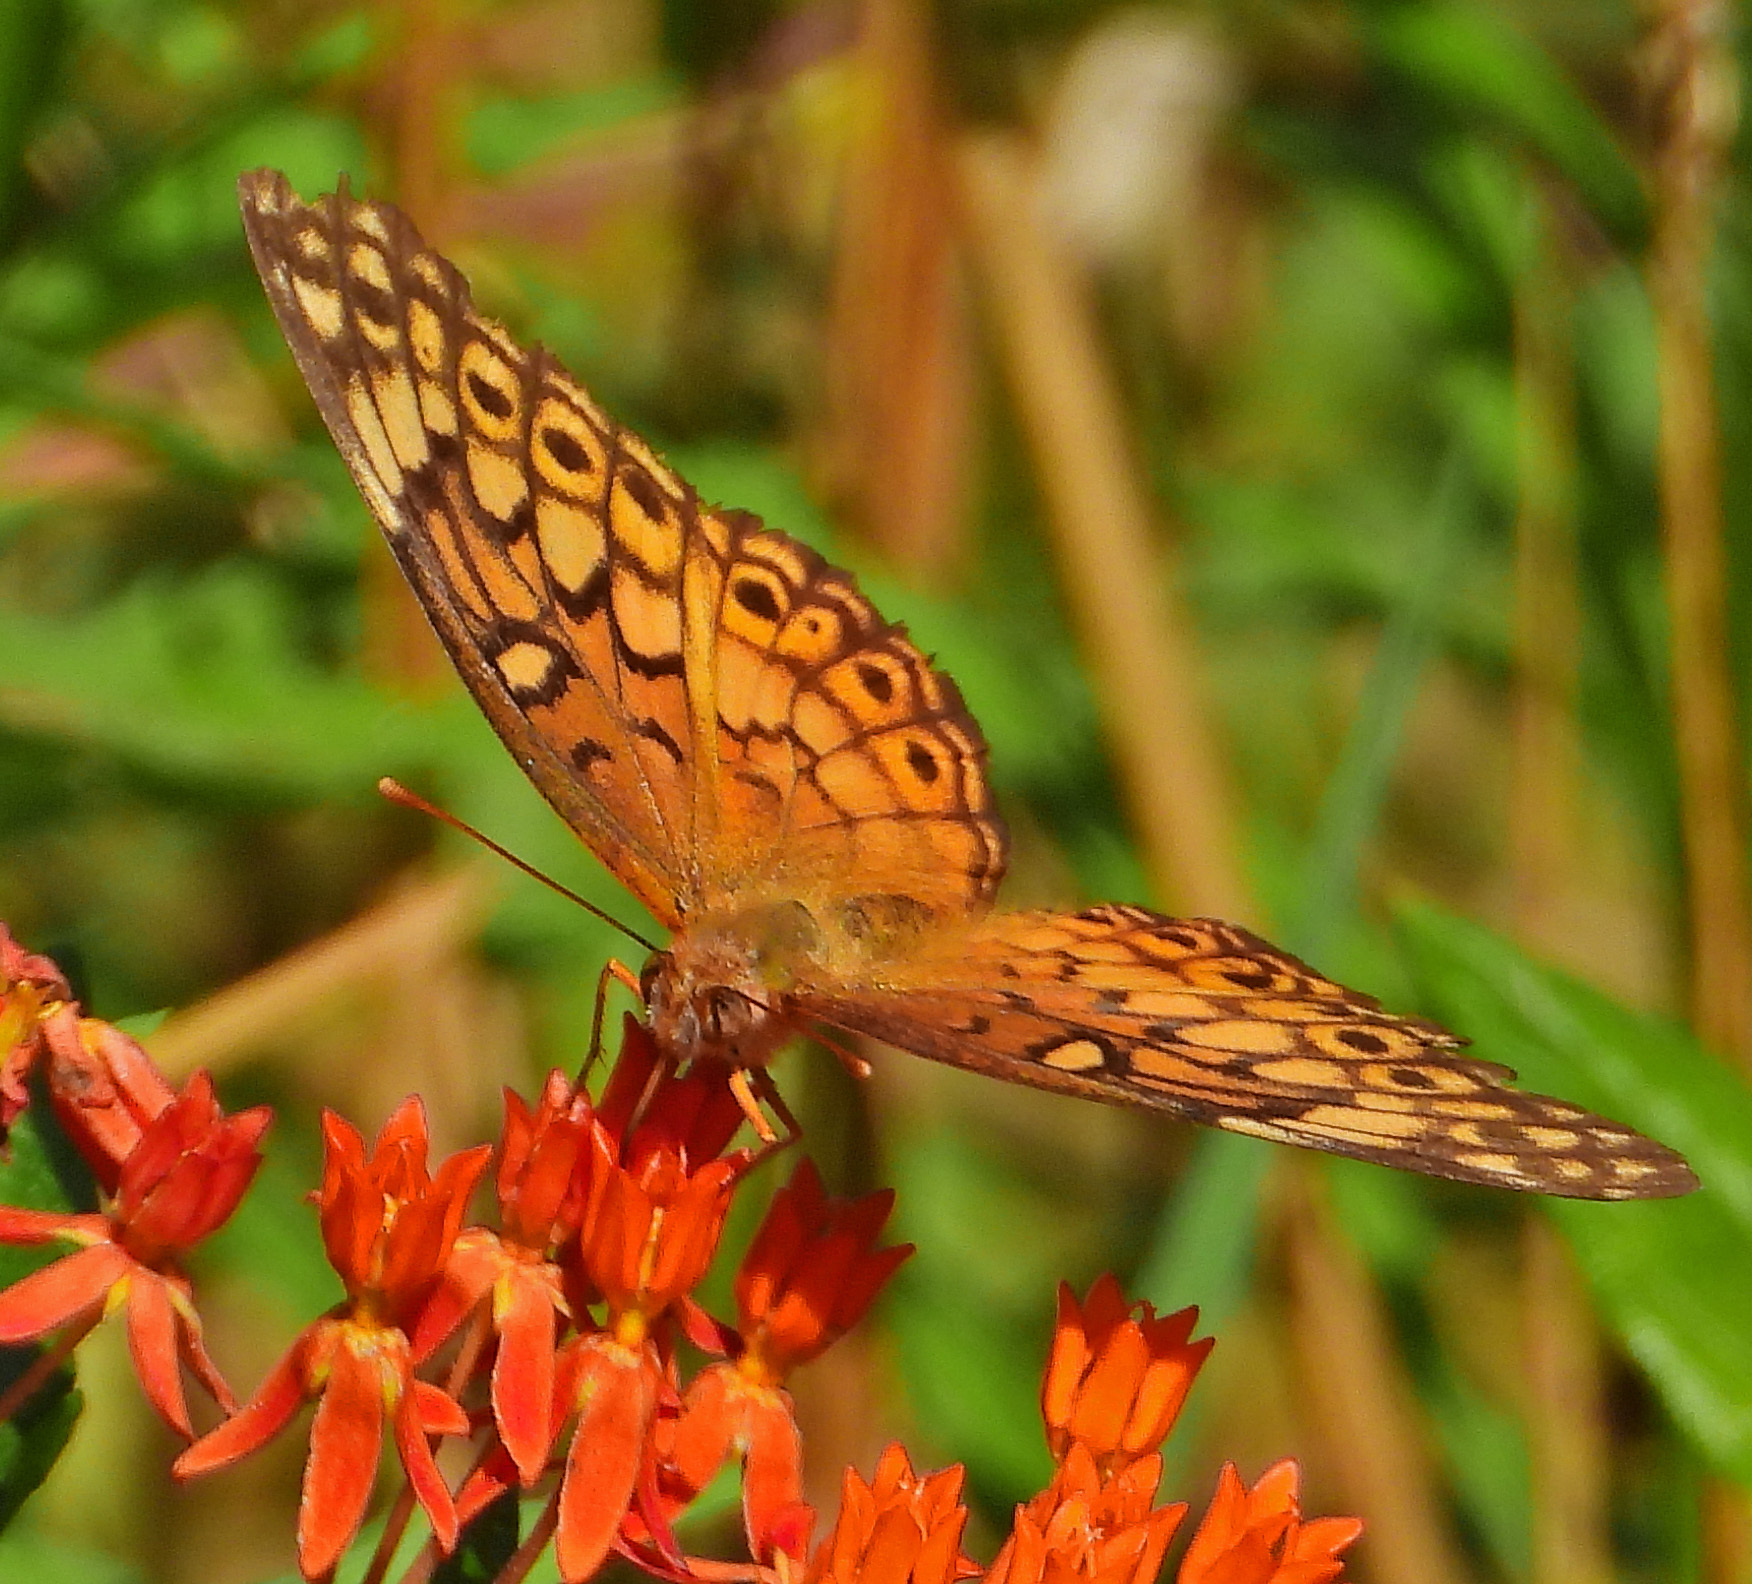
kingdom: Animalia
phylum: Arthropoda
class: Insecta
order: Lepidoptera
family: Nymphalidae
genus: Euptoieta
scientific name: Euptoieta claudia
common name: Variegated fritillary
